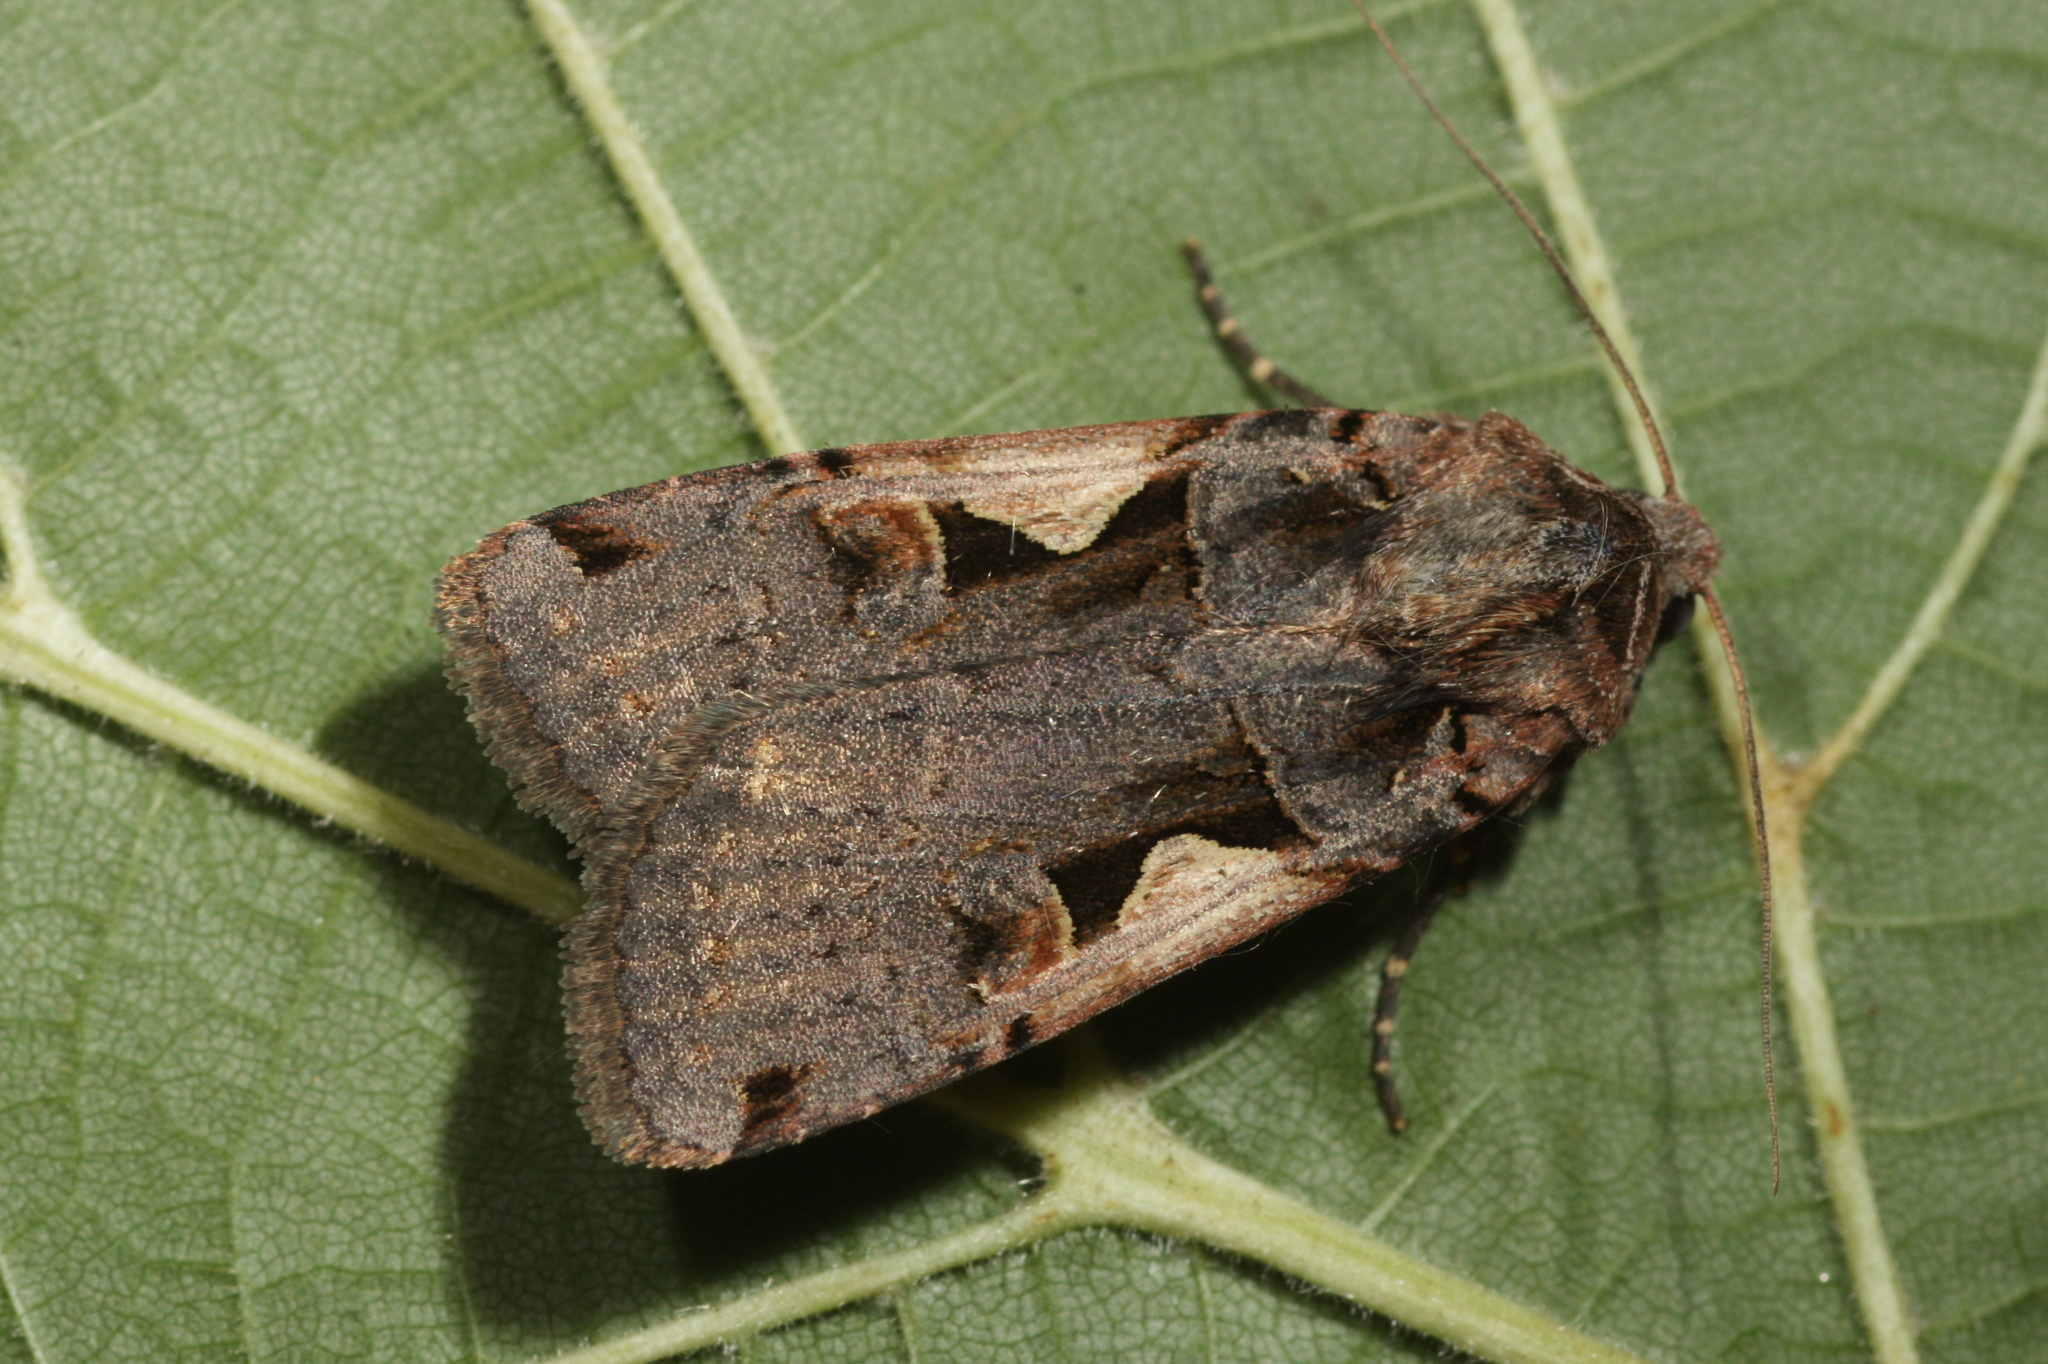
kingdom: Animalia
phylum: Arthropoda
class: Insecta
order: Lepidoptera
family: Noctuidae
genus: Xestia
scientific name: Xestia c-nigrum
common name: Setaceous hebrew character
